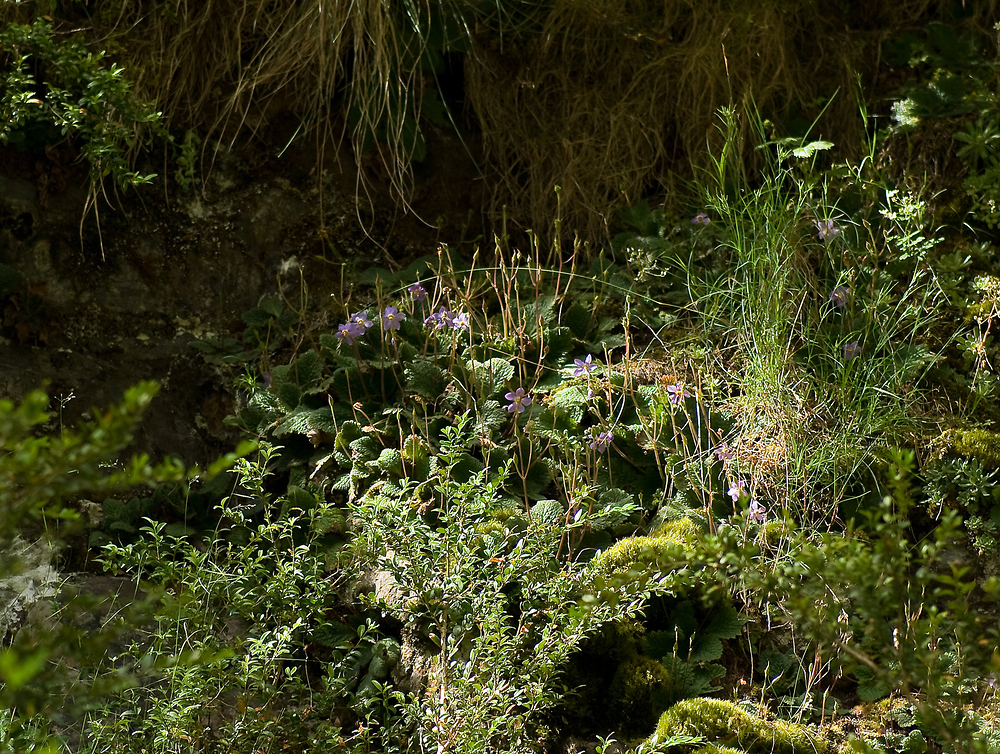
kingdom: Plantae
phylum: Tracheophyta
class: Magnoliopsida
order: Lamiales
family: Gesneriaceae
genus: Ramonda
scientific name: Ramonda myconi
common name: Pyrenean-violet
